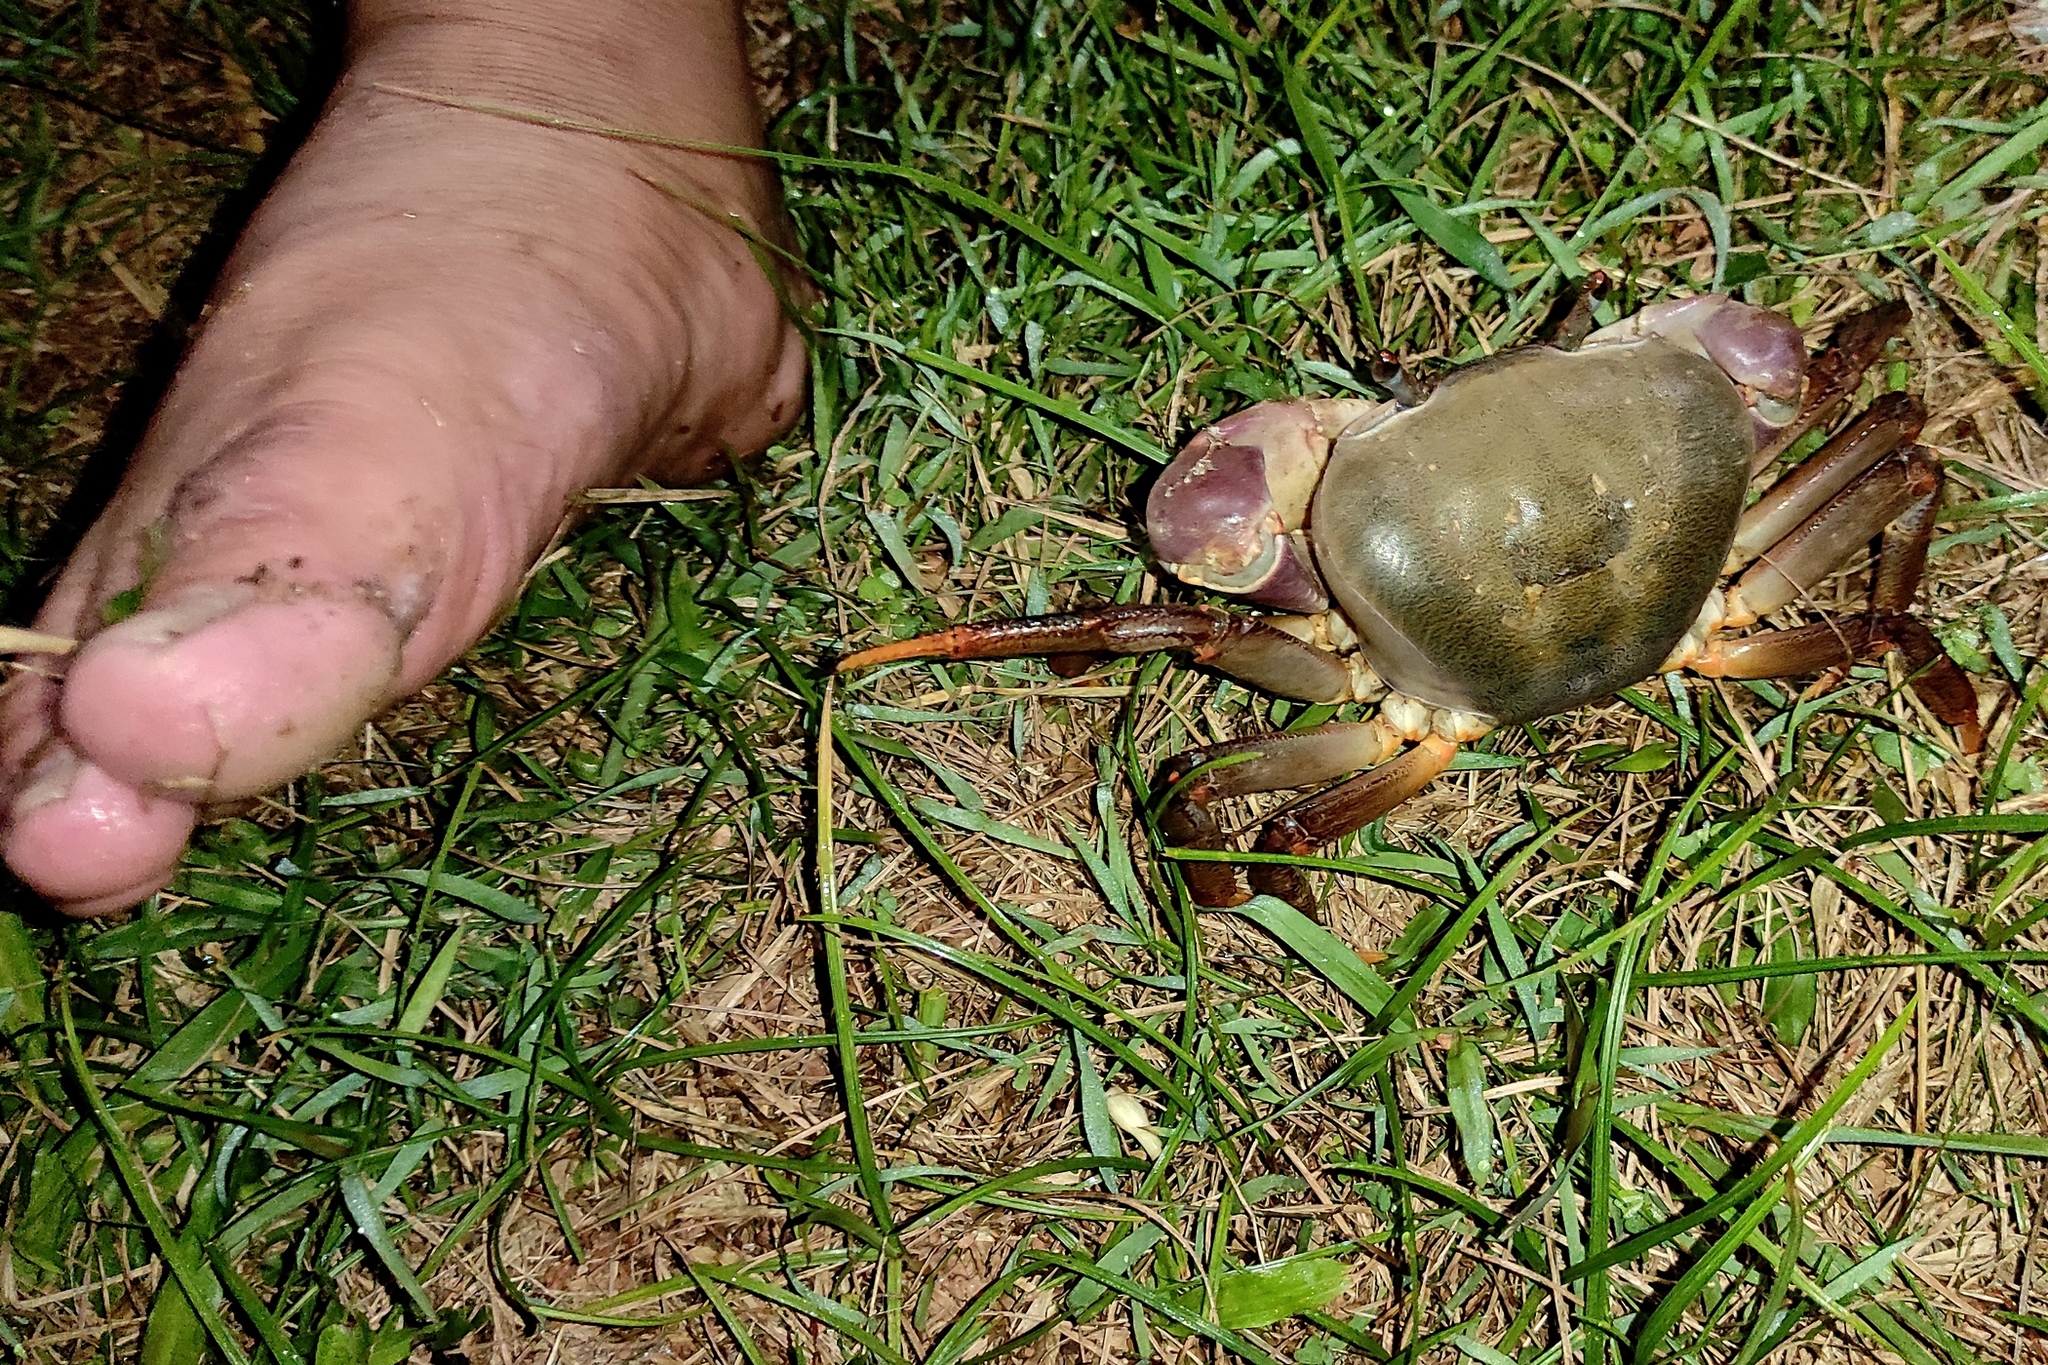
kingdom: Animalia
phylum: Arthropoda
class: Malacostraca
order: Decapoda
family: Gecarcinidae
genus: Cardisoma
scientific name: Cardisoma carnifex
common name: Brown land crab
